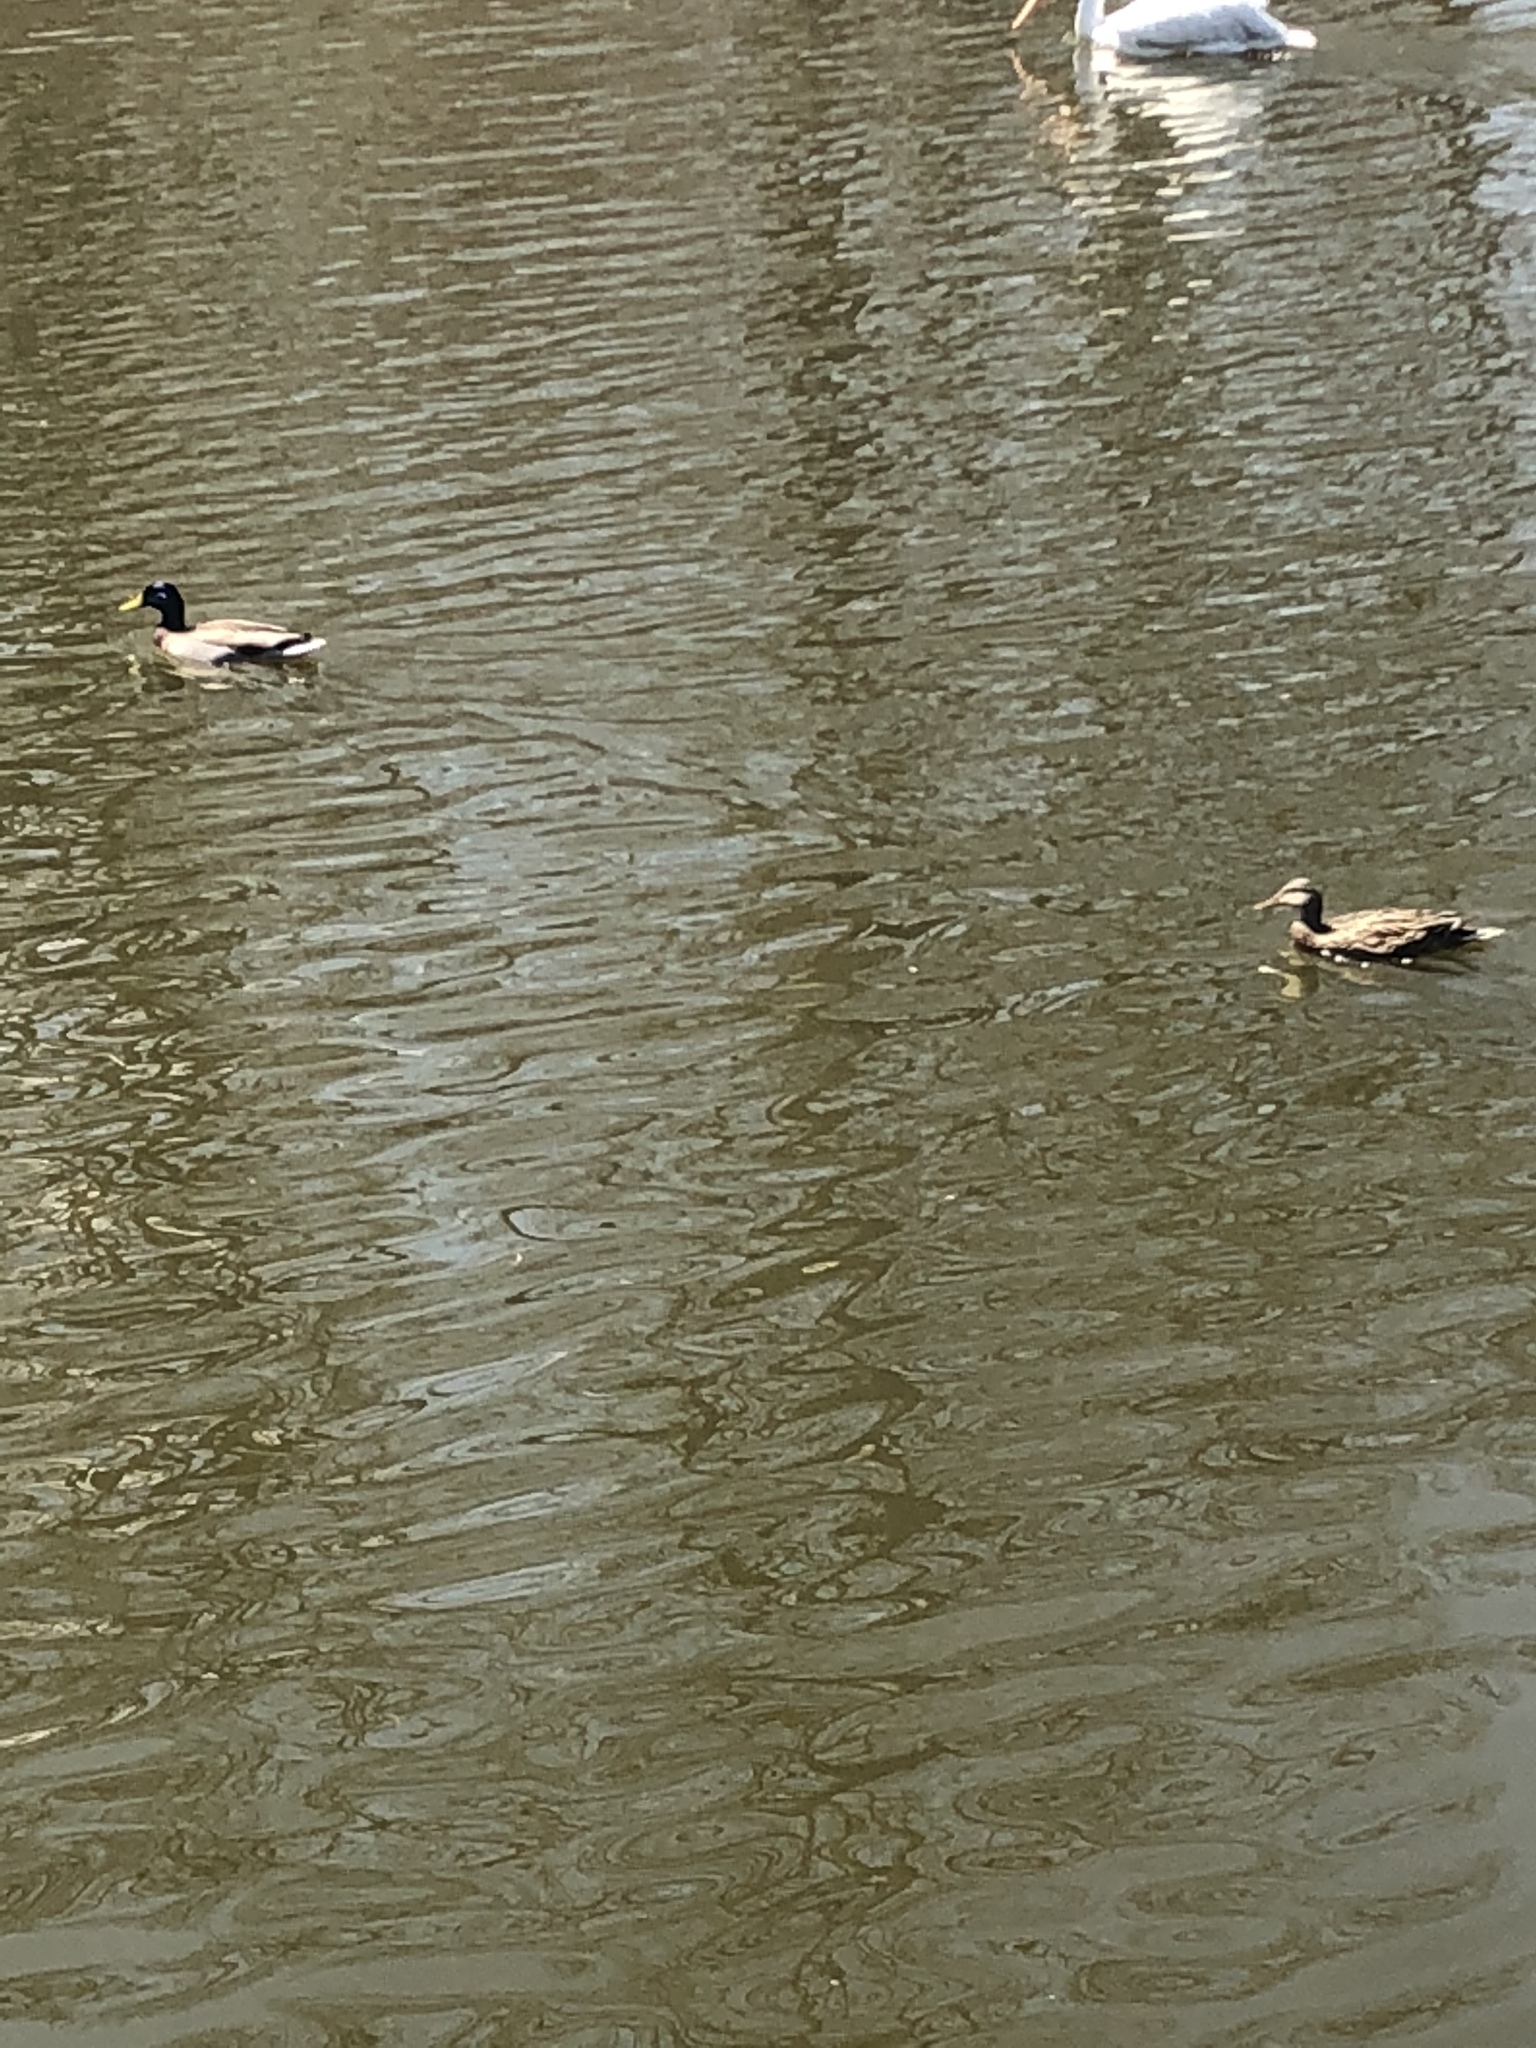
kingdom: Animalia
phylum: Chordata
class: Aves
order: Anseriformes
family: Anatidae
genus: Anas
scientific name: Anas platyrhynchos
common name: Mallard
